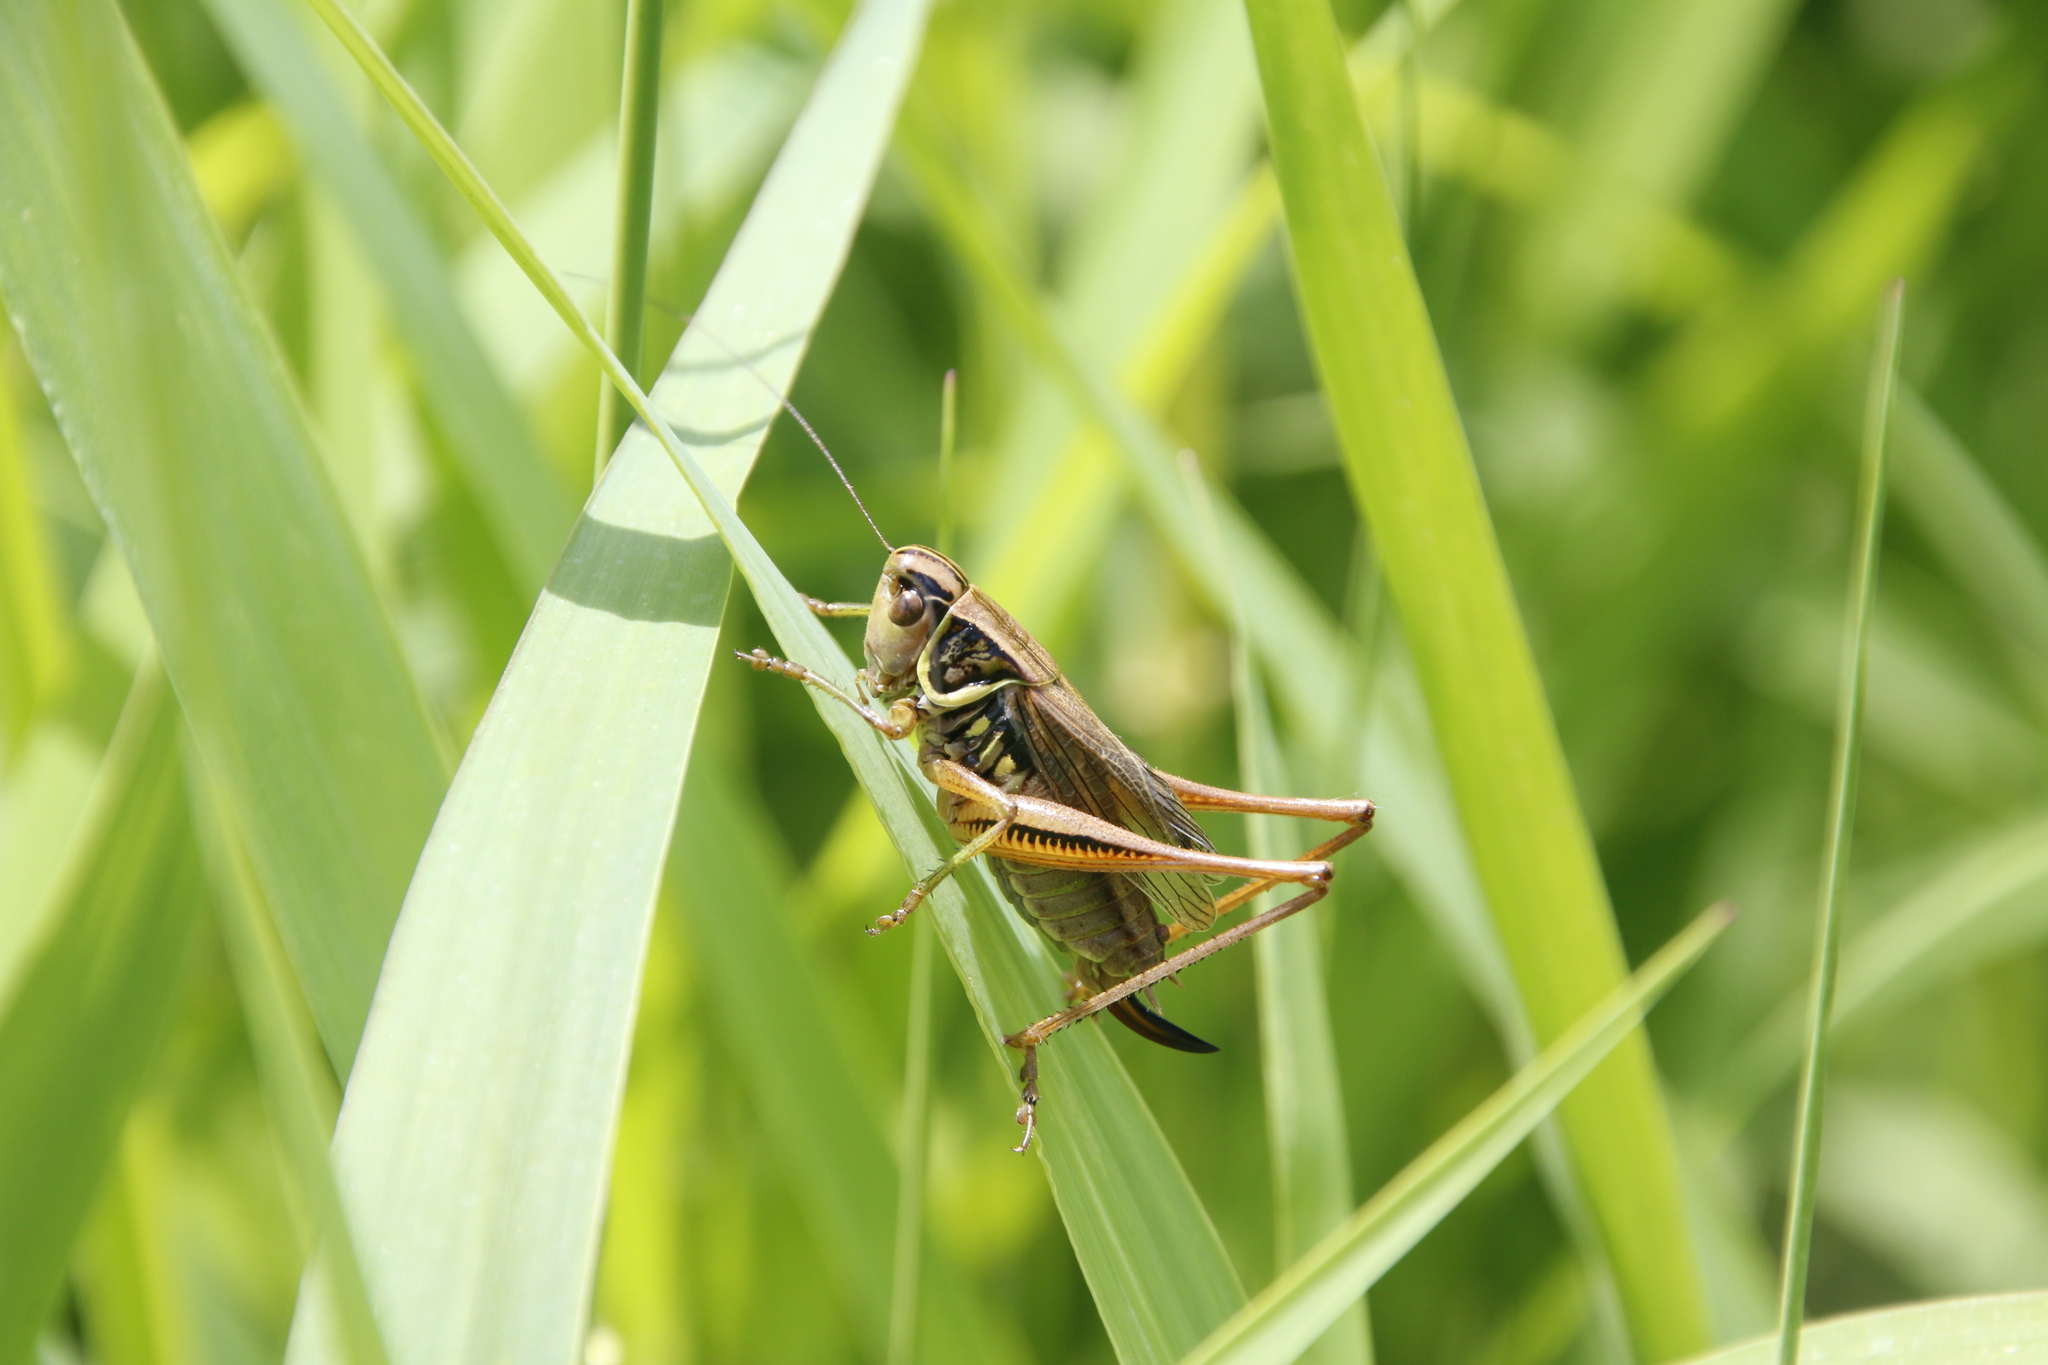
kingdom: Animalia
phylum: Arthropoda
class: Insecta
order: Orthoptera
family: Tettigoniidae
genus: Roeseliana
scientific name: Roeseliana roeselii
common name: Roesel's bush cricket
